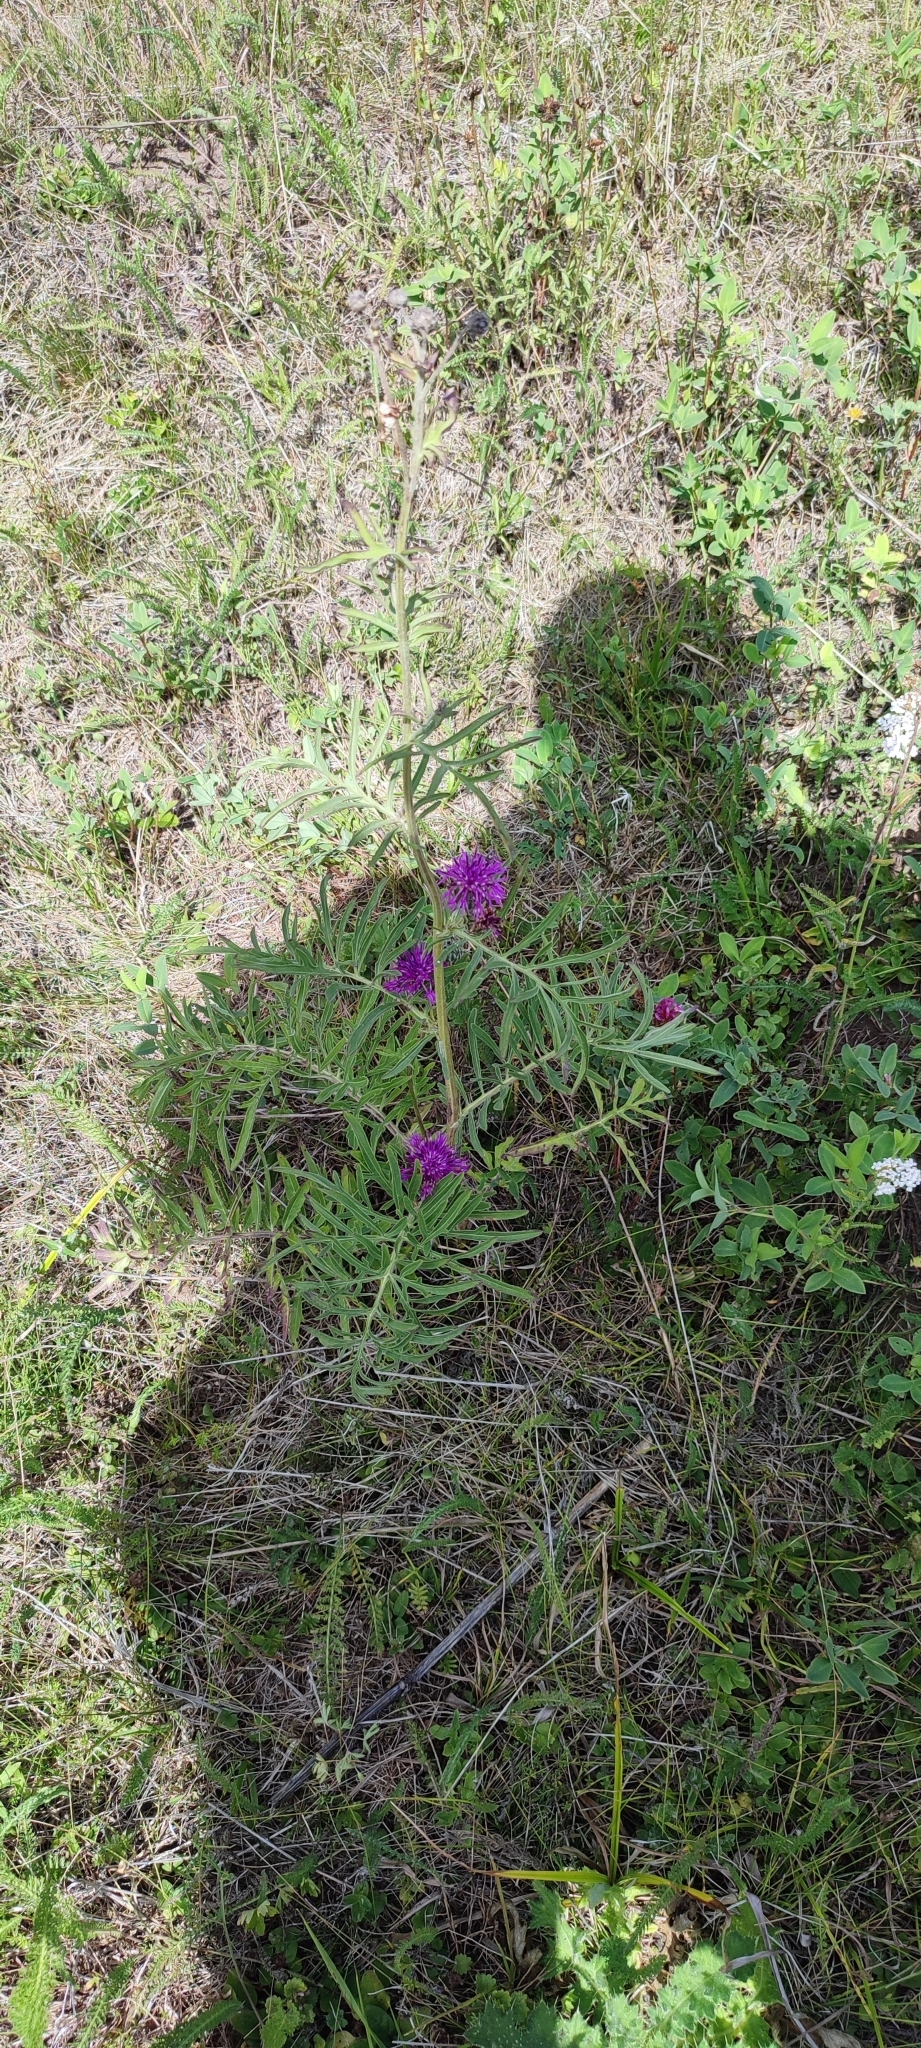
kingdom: Plantae
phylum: Tracheophyta
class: Magnoliopsida
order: Asterales
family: Asteraceae
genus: Centaurea
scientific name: Centaurea scabiosa
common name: Greater knapweed
